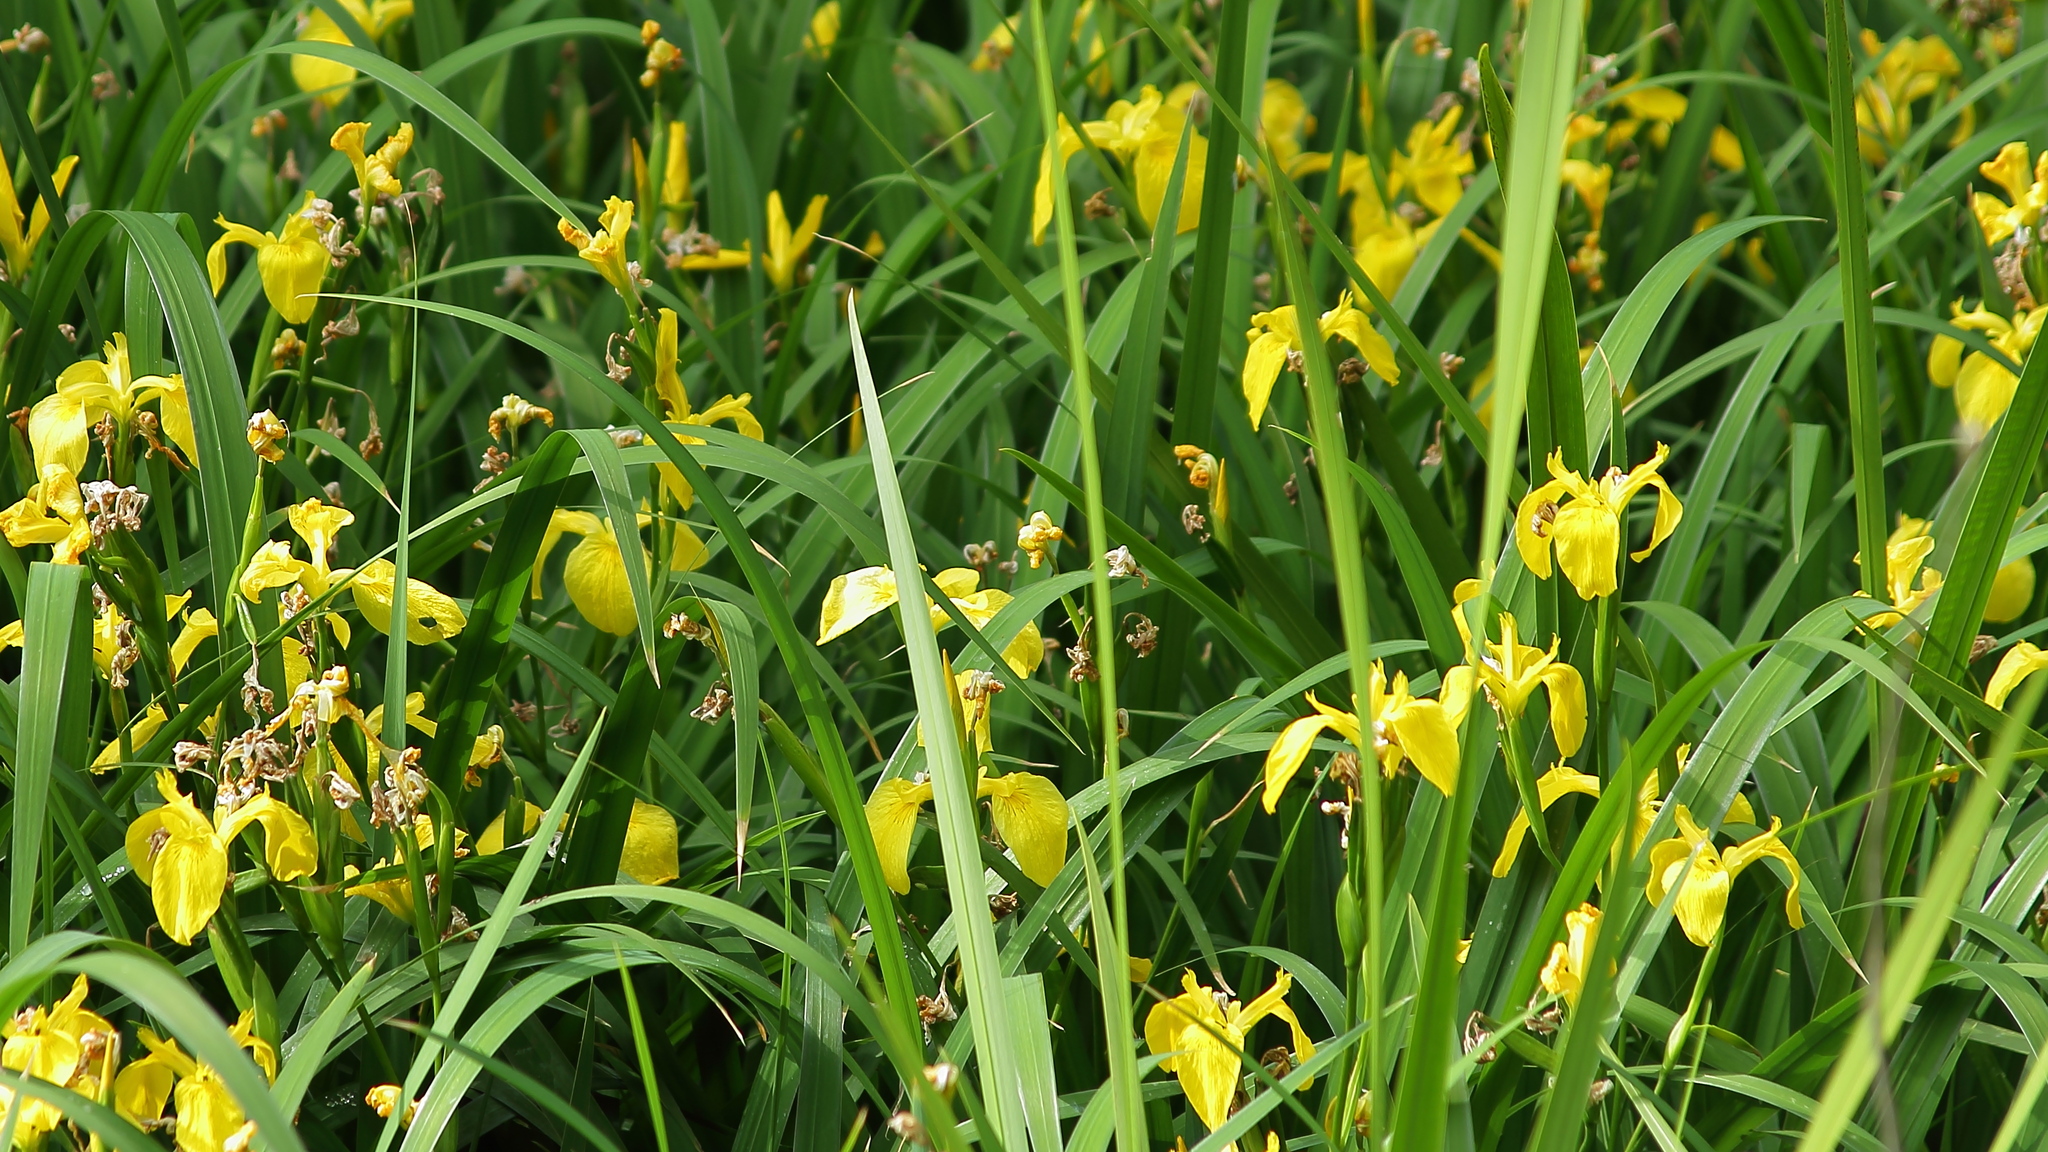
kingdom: Plantae
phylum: Tracheophyta
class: Liliopsida
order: Asparagales
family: Iridaceae
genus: Iris
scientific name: Iris pseudacorus
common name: Yellow flag
